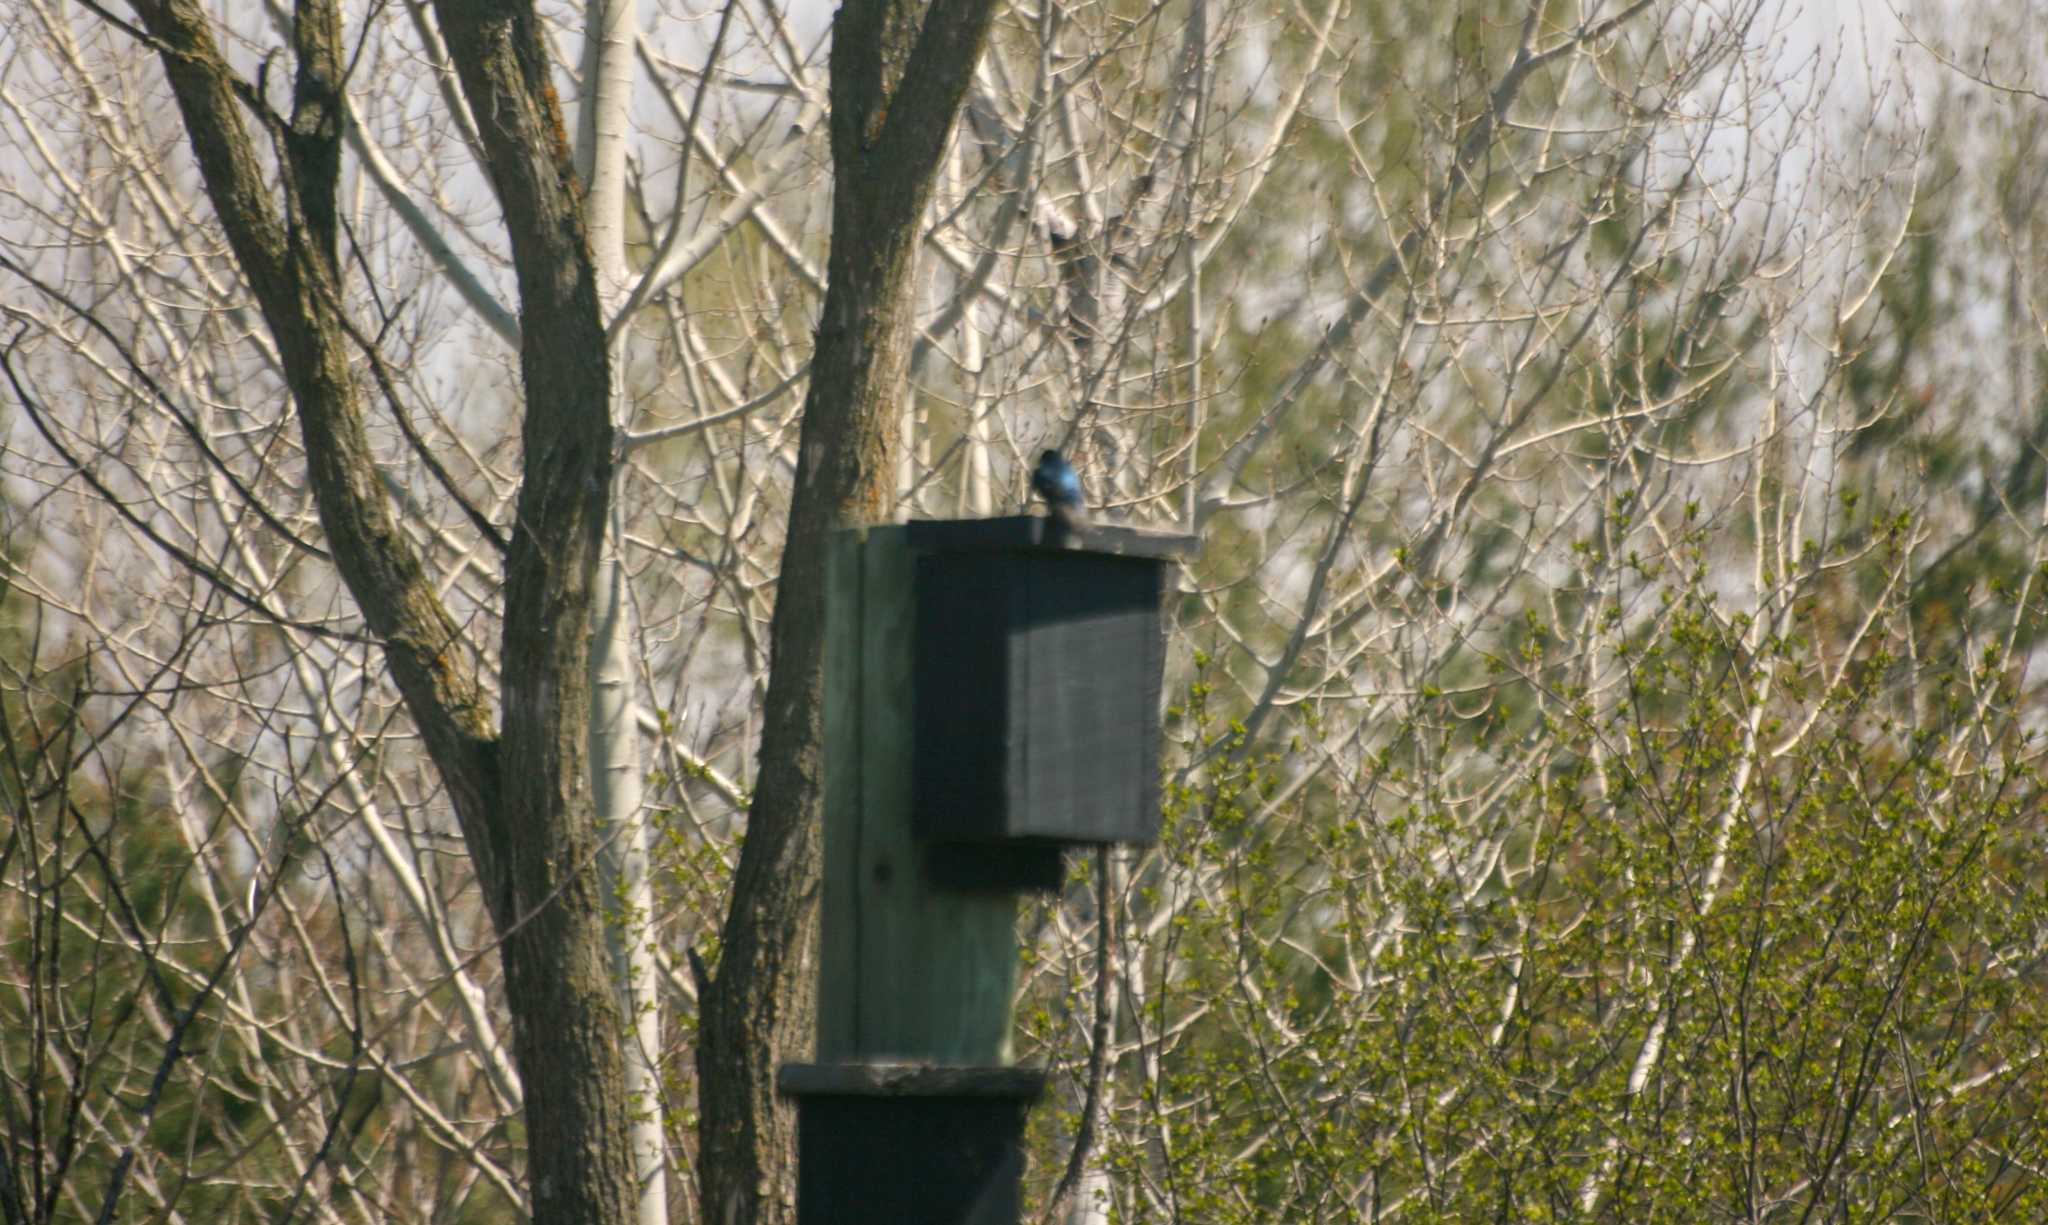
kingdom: Animalia
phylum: Chordata
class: Aves
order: Passeriformes
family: Hirundinidae
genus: Tachycineta
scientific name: Tachycineta bicolor
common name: Tree swallow
